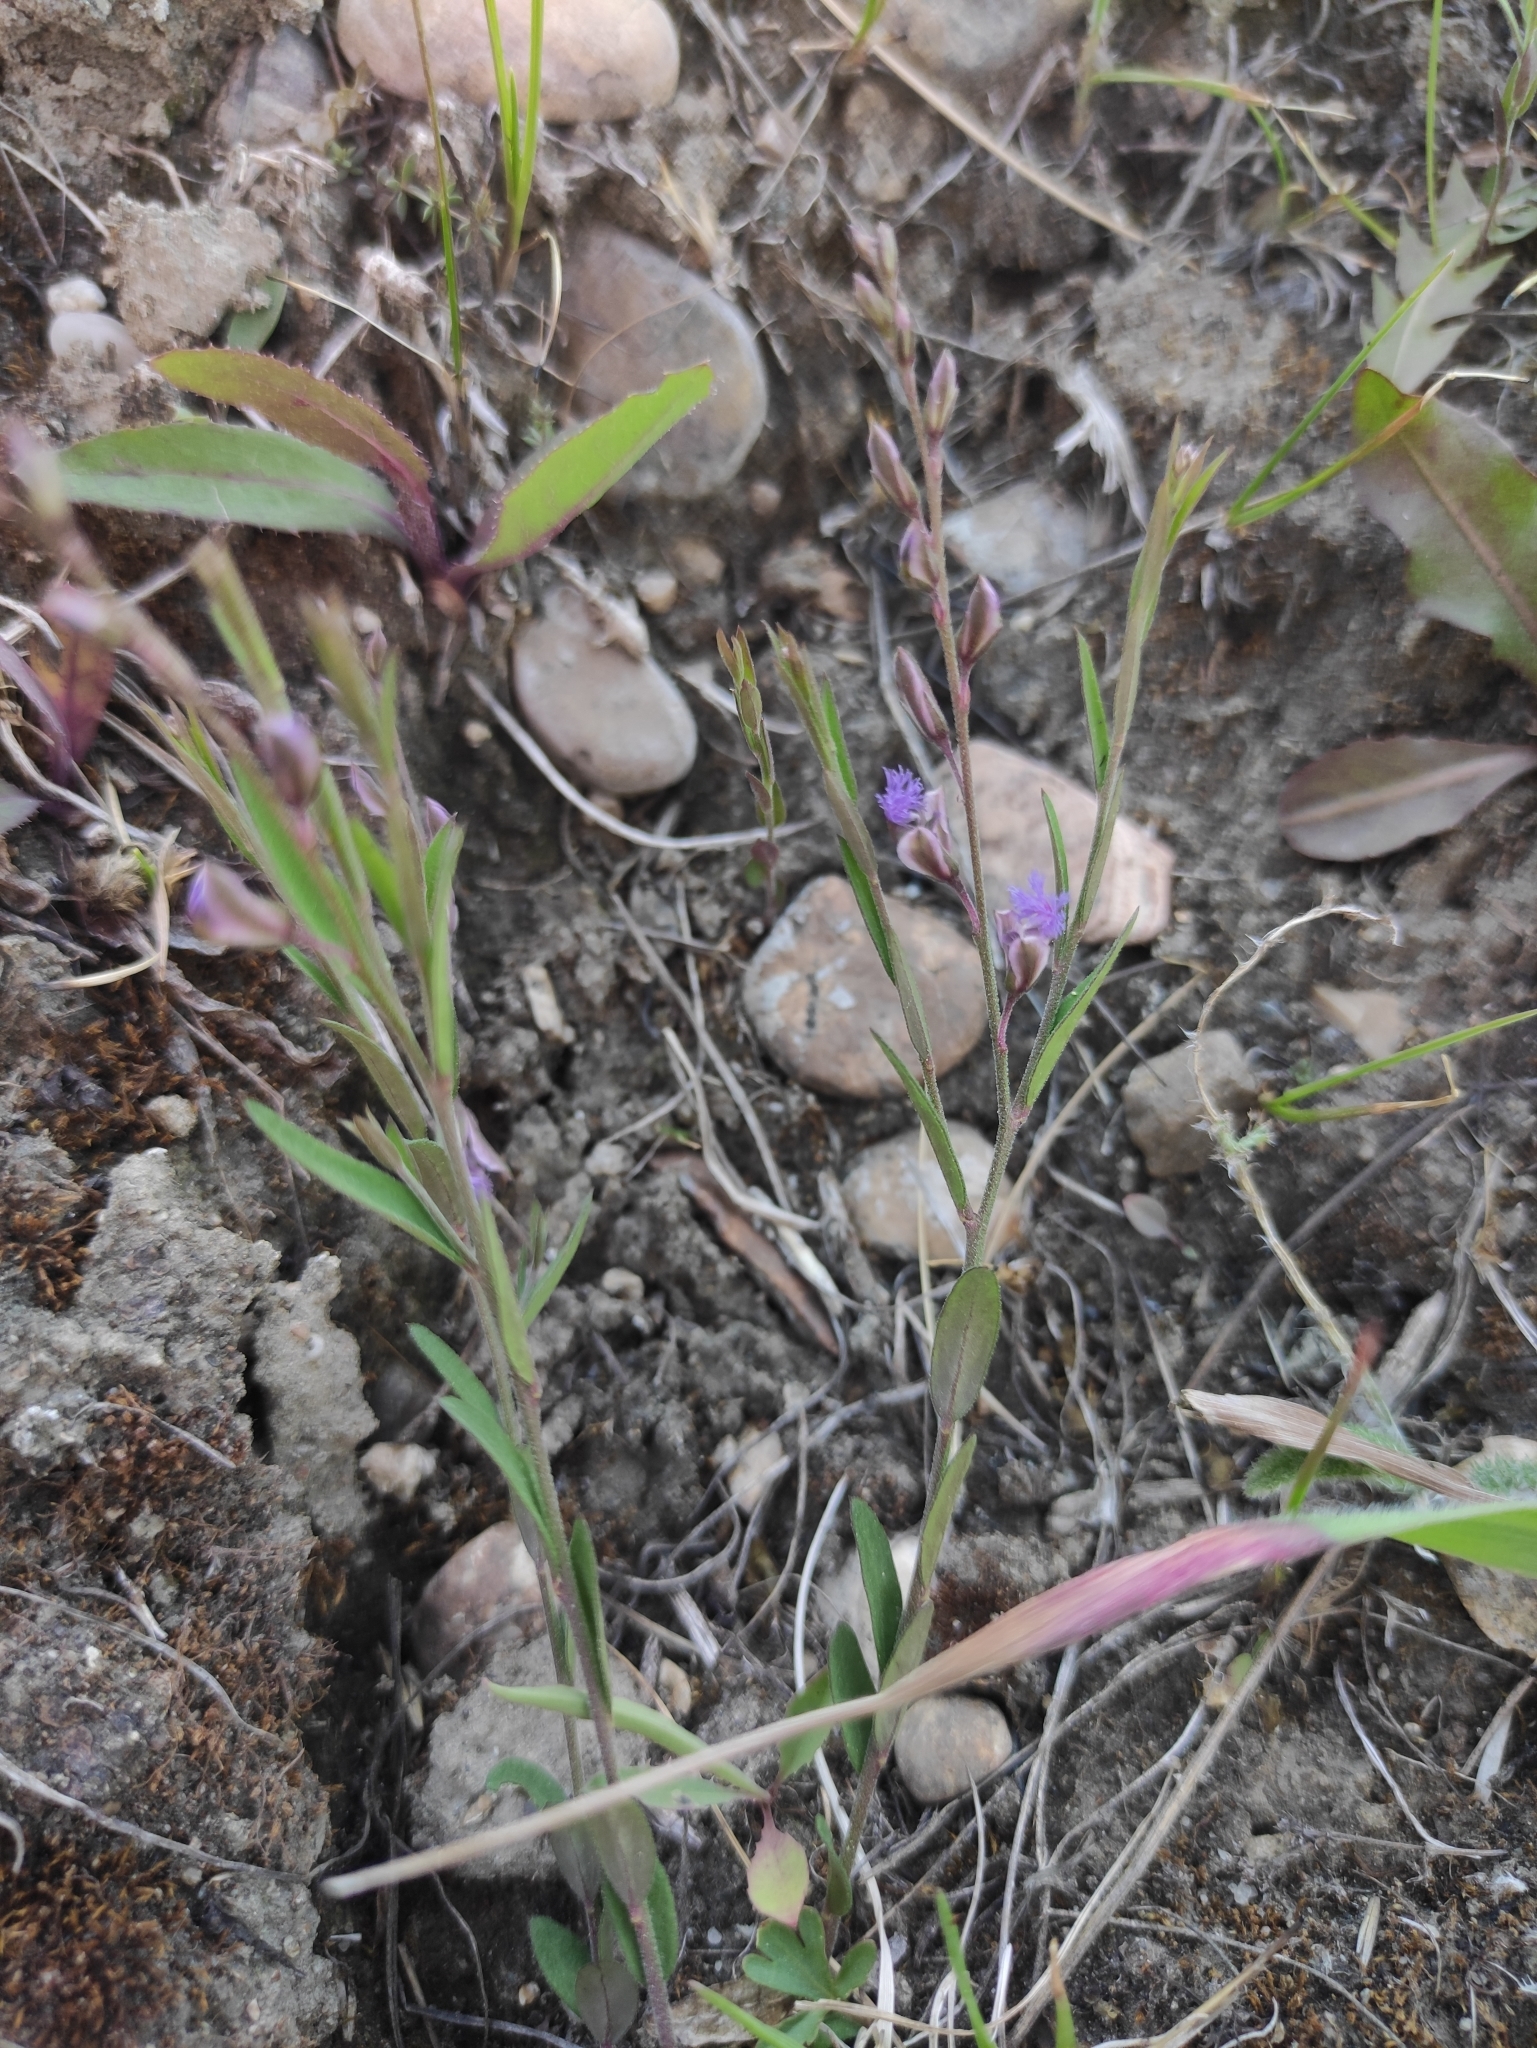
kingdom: Plantae
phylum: Tracheophyta
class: Magnoliopsida
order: Fabales
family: Polygalaceae
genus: Polygala
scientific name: Polygala sibirica
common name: Siberian polygala
